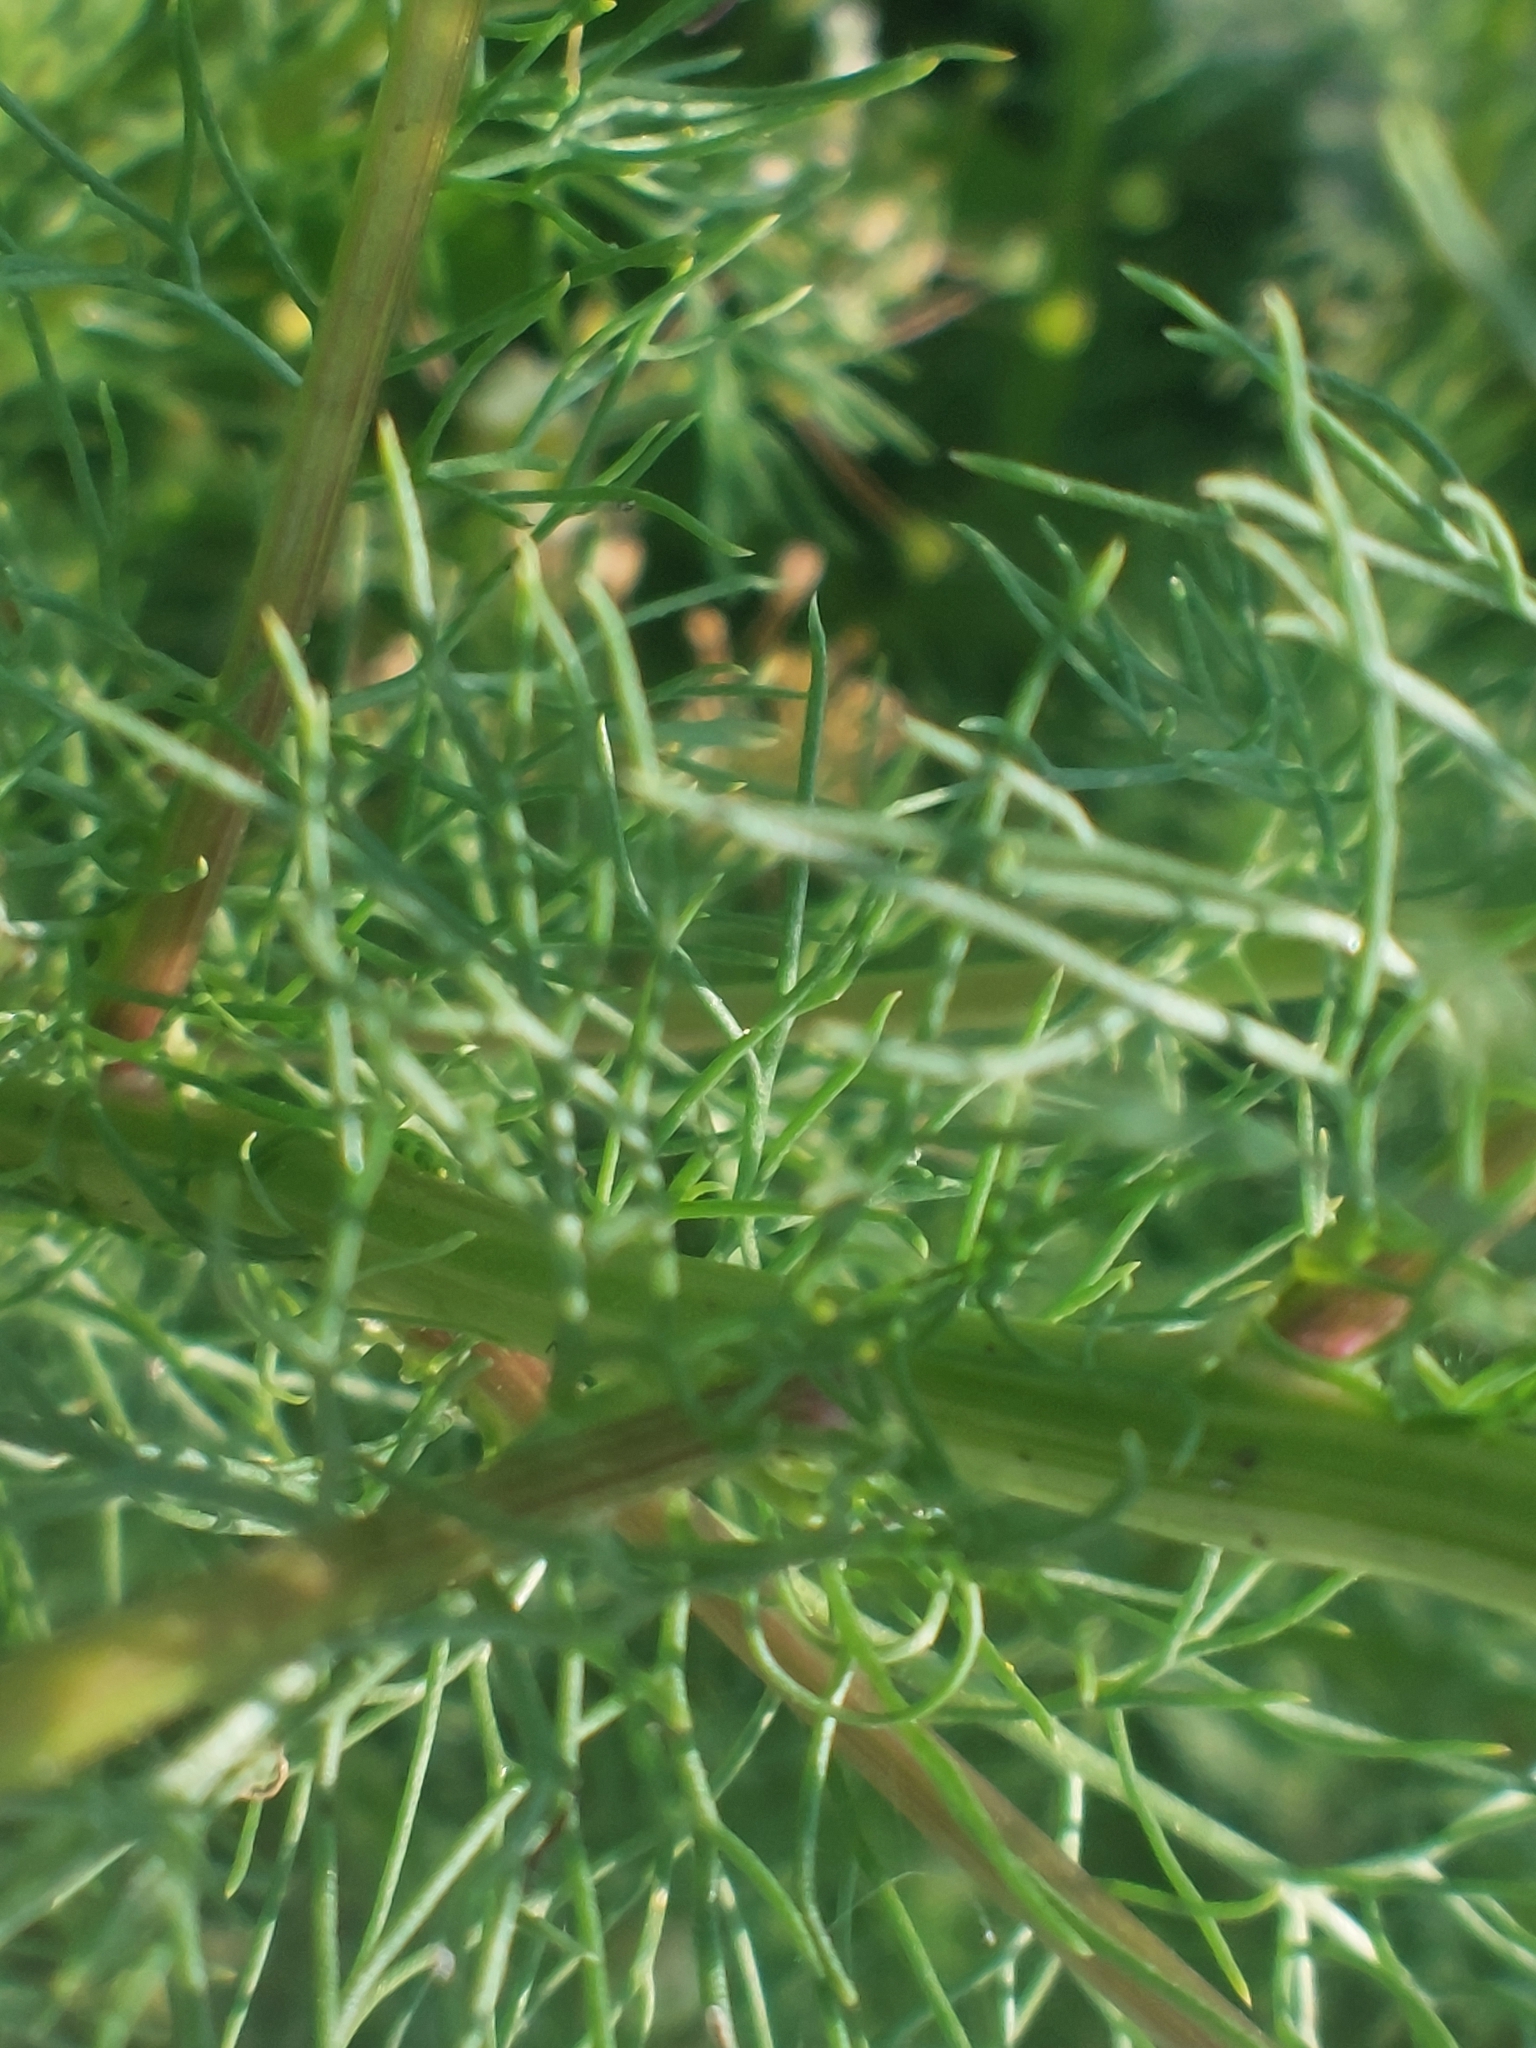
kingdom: Plantae
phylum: Tracheophyta
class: Magnoliopsida
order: Asterales
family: Asteraceae
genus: Tripleurospermum
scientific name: Tripleurospermum inodorum
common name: Scentless mayweed
